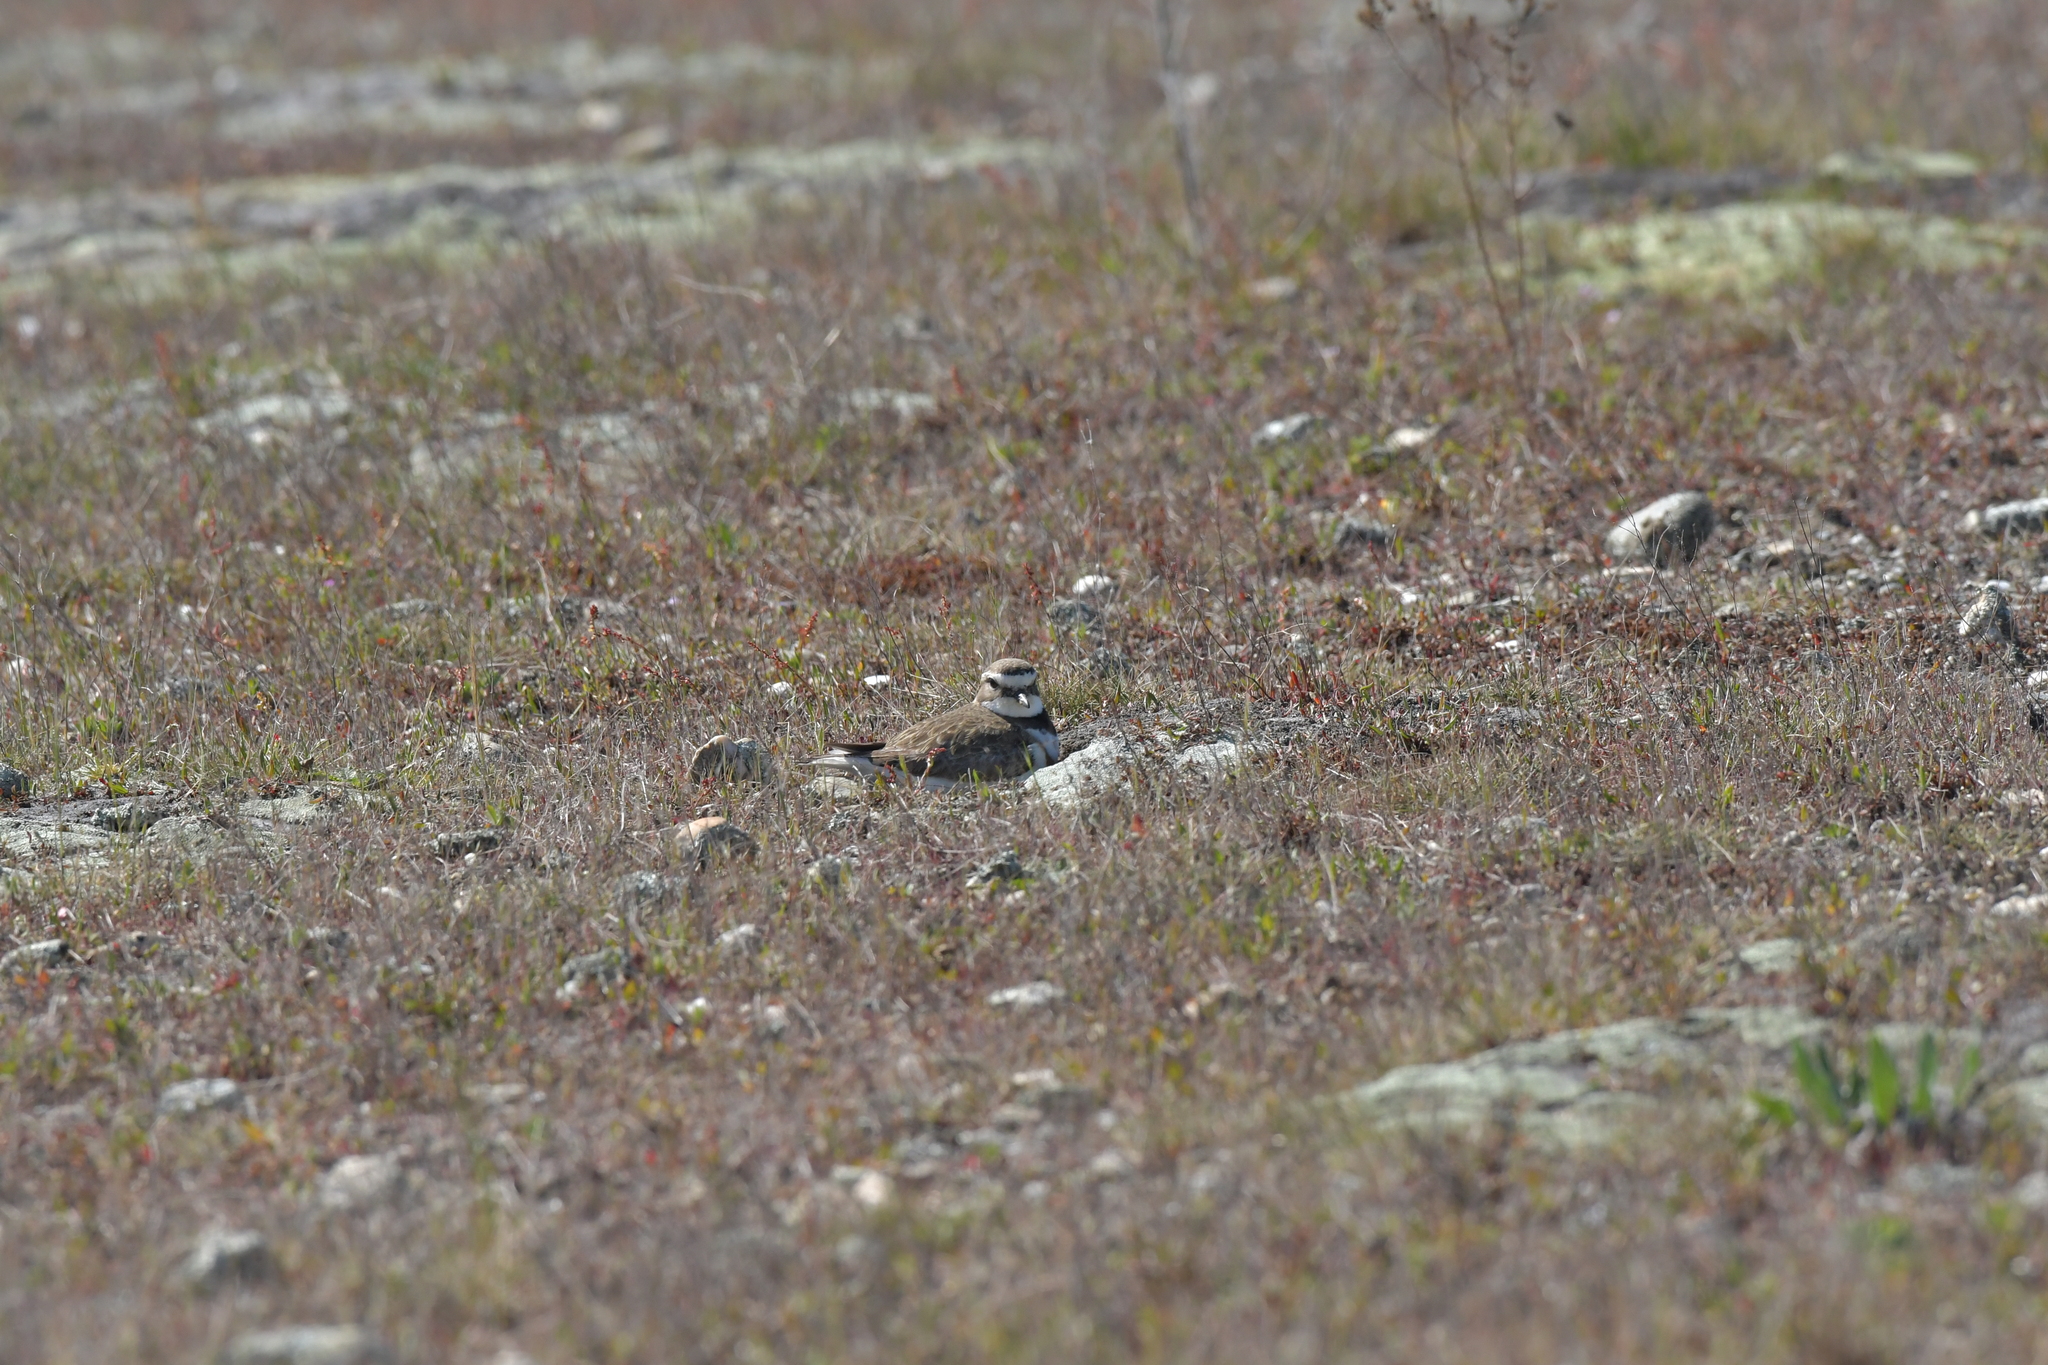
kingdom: Animalia
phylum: Chordata
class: Aves
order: Charadriiformes
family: Charadriidae
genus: Anarhynchus
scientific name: Anarhynchus
